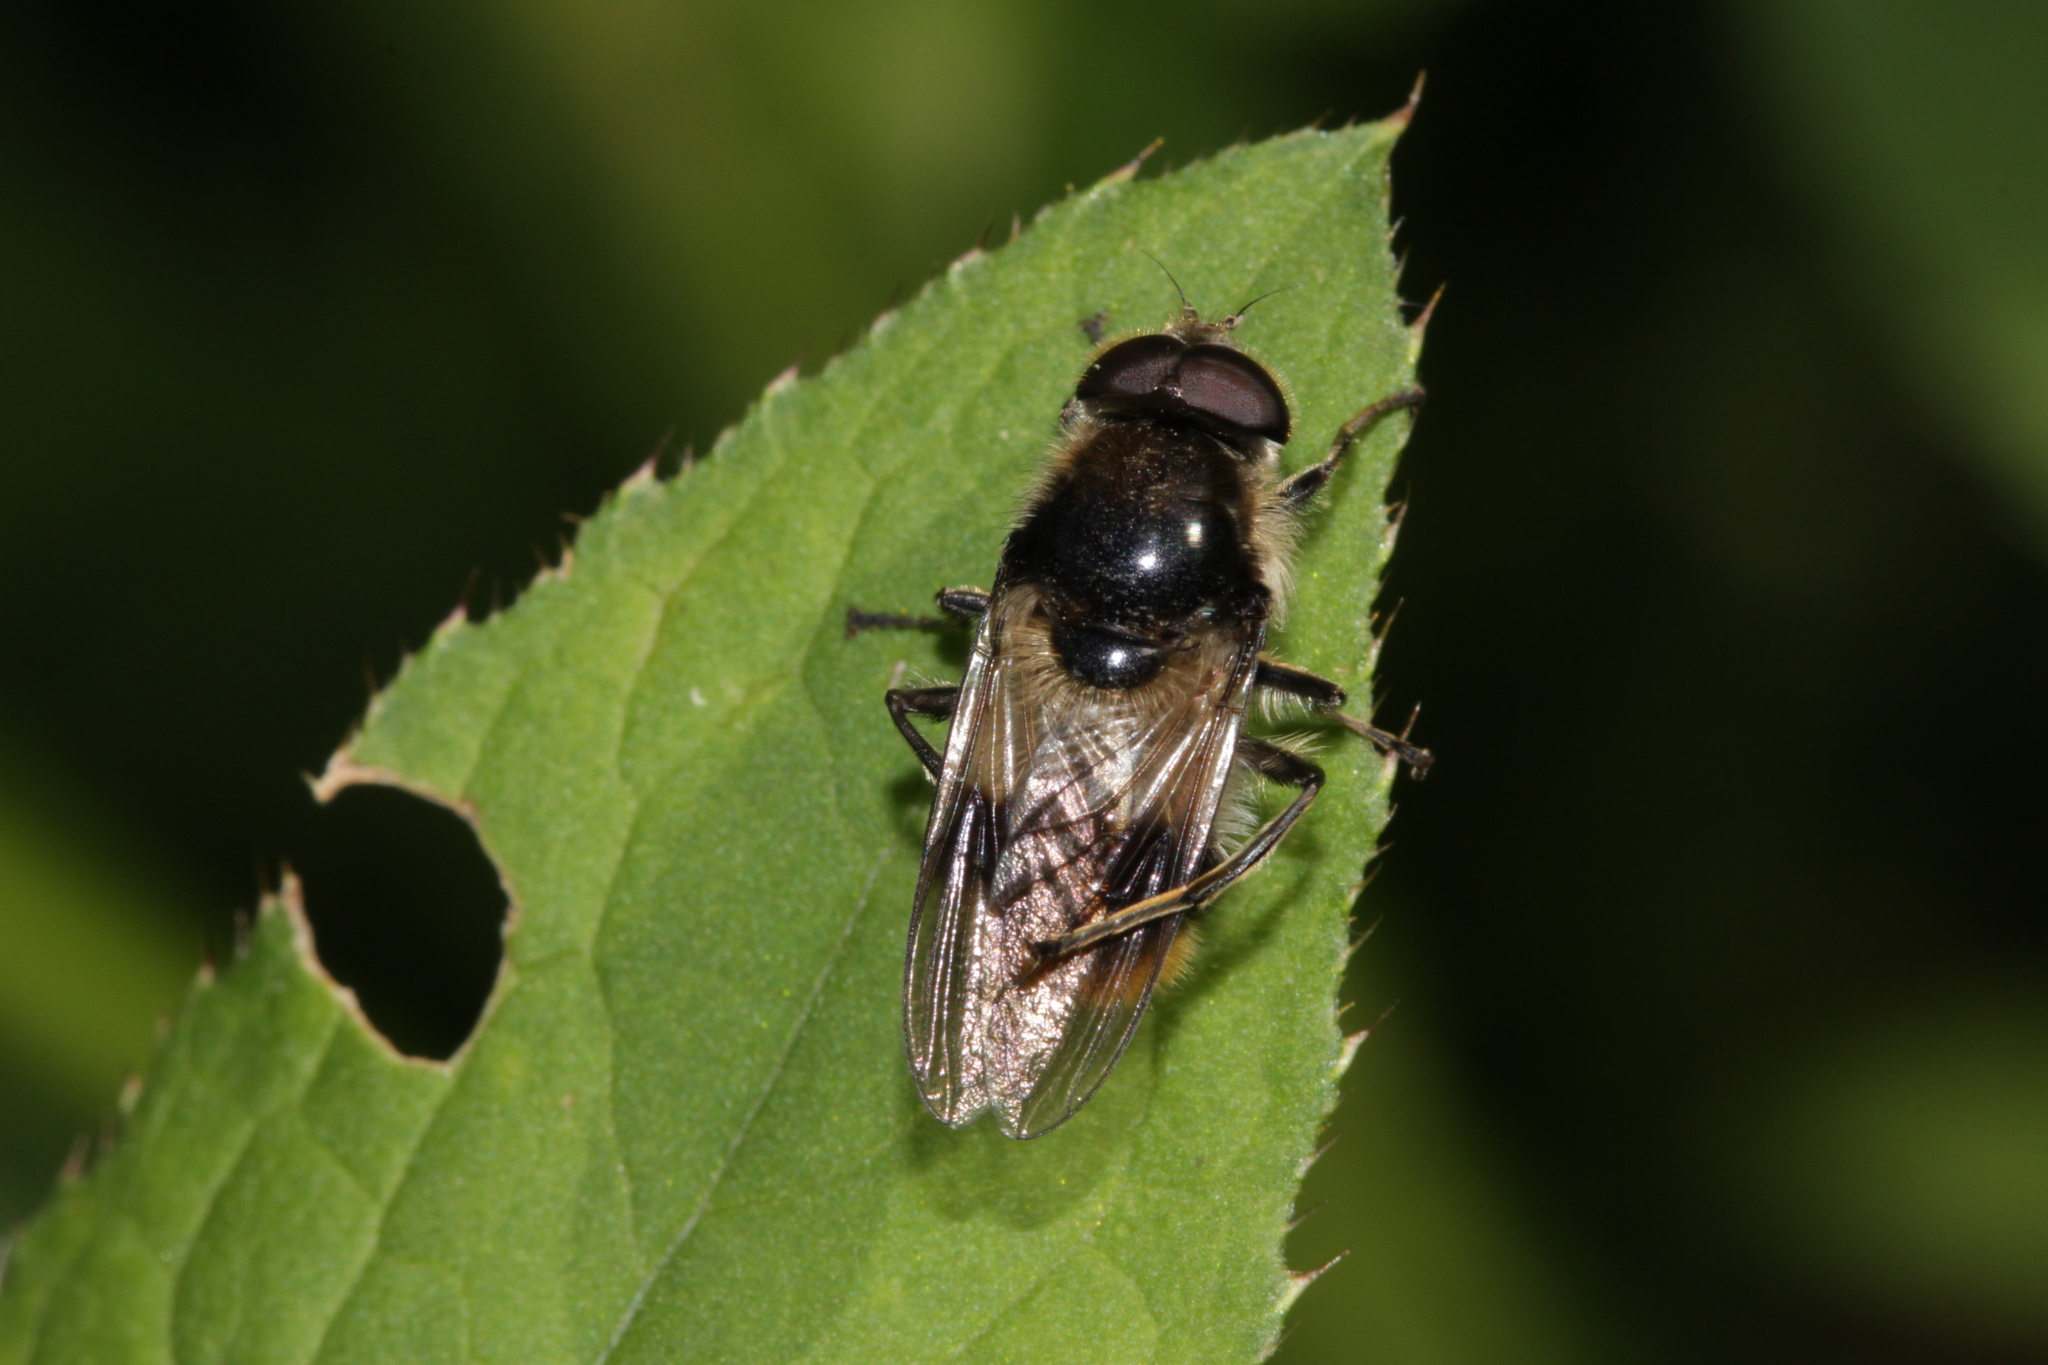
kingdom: Animalia
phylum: Arthropoda
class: Insecta
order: Diptera
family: Syrphidae
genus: Cheilosia
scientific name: Cheilosia illustrata
